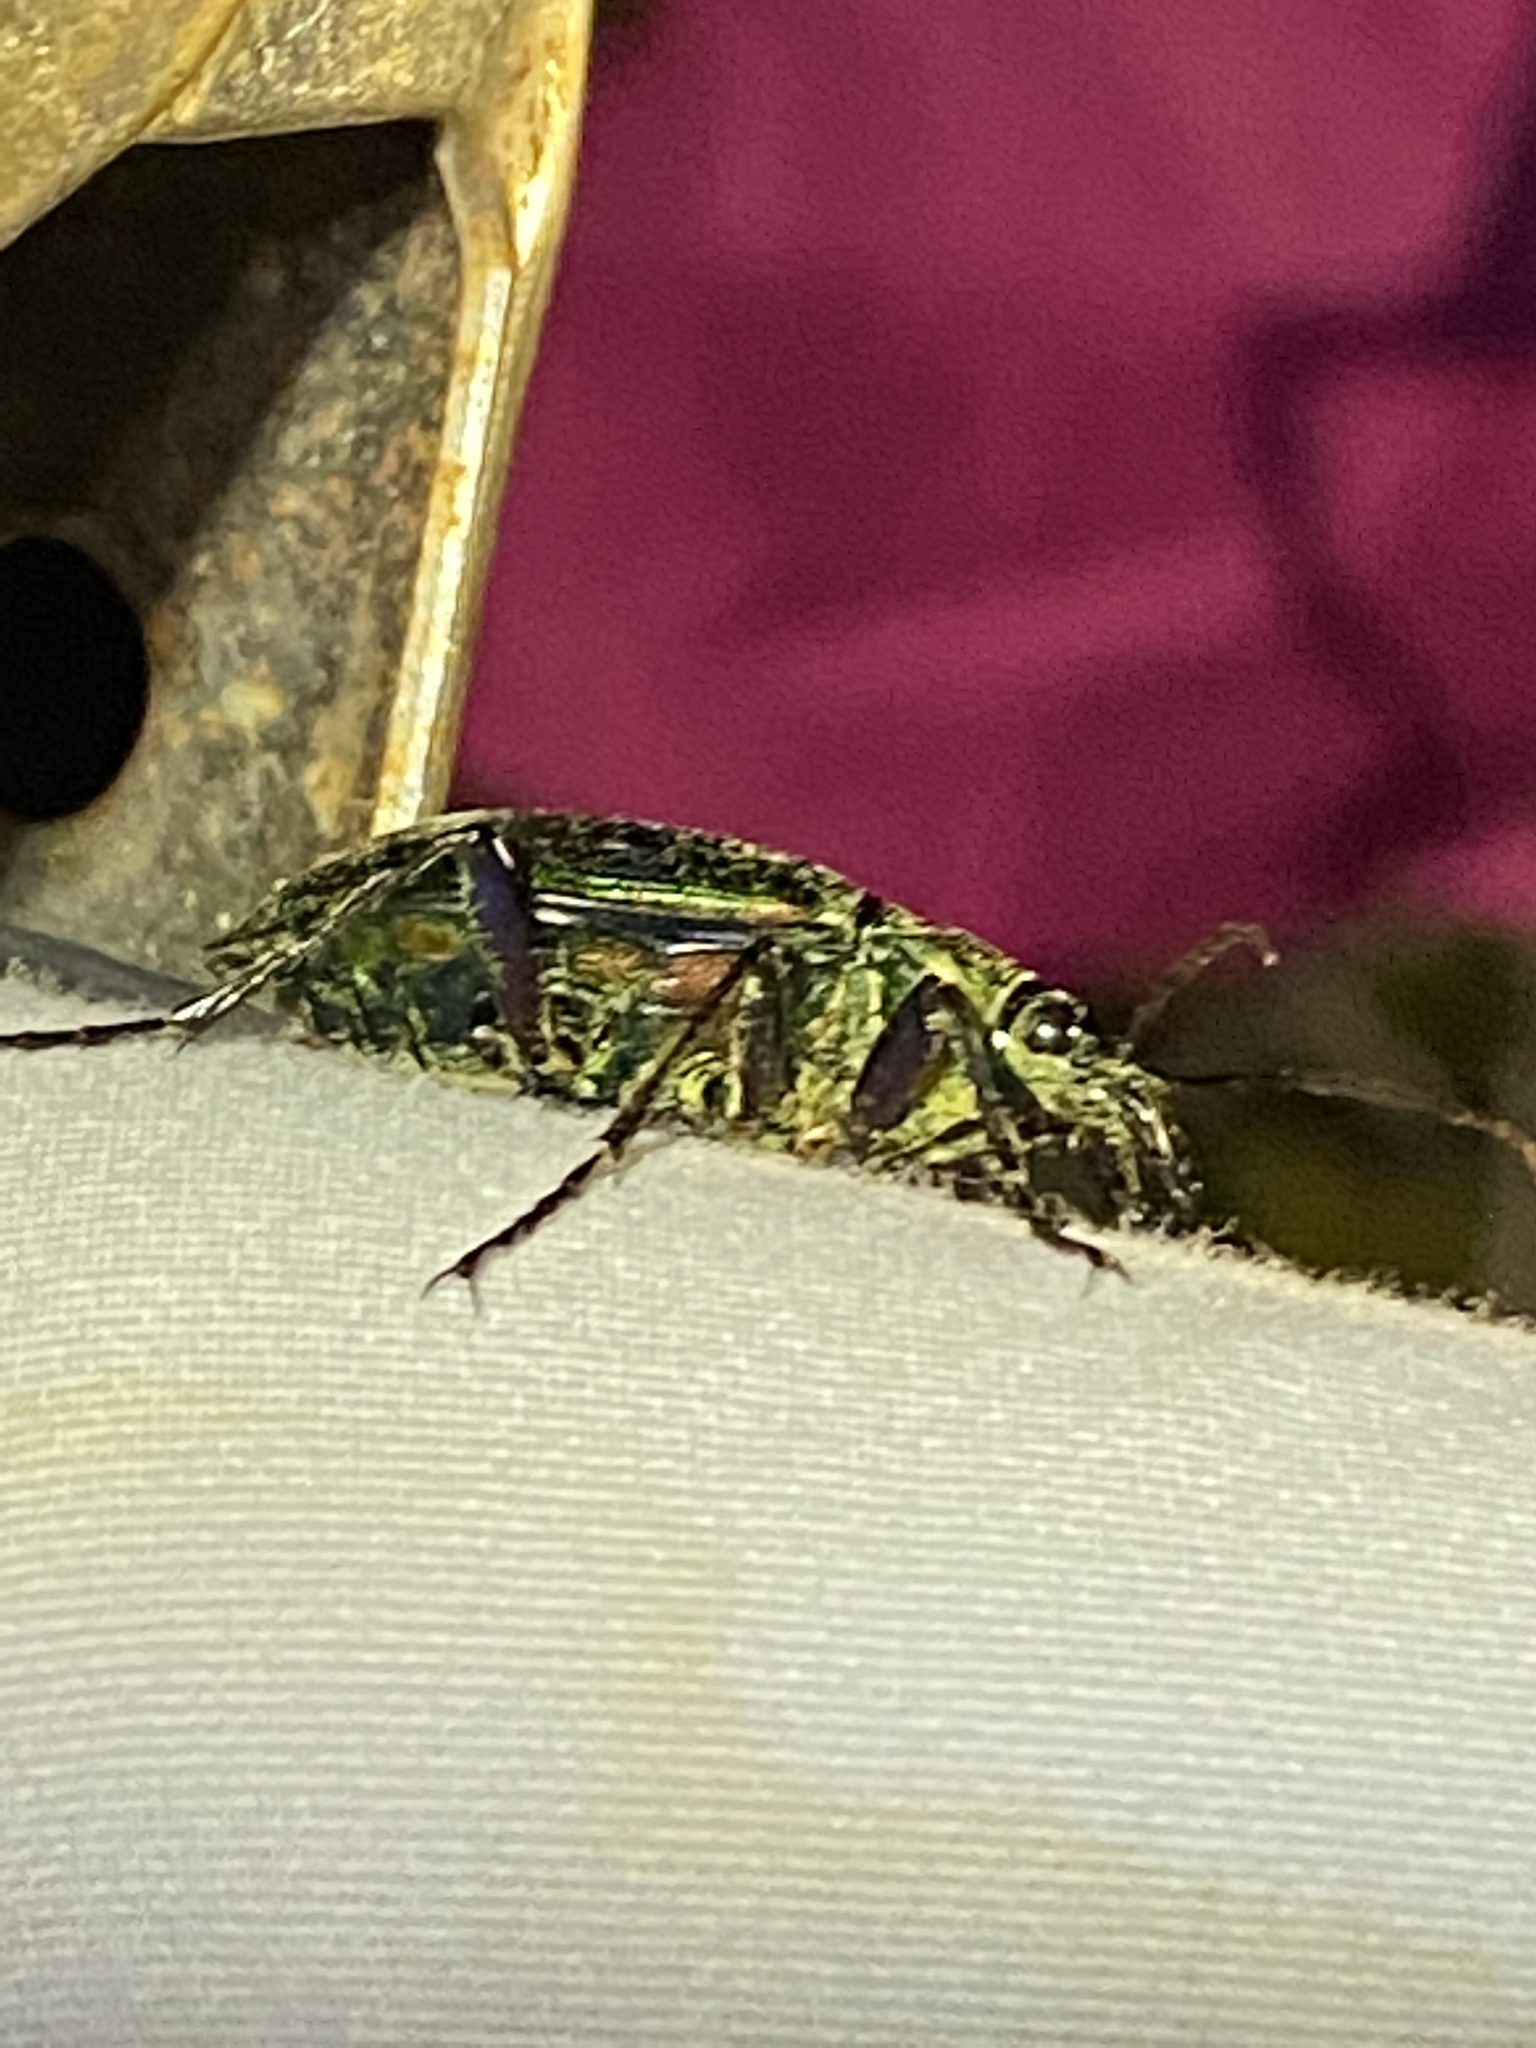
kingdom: Animalia
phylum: Arthropoda
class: Insecta
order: Coleoptera
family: Carabidae
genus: Calosoma
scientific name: Calosoma wilcoxi
